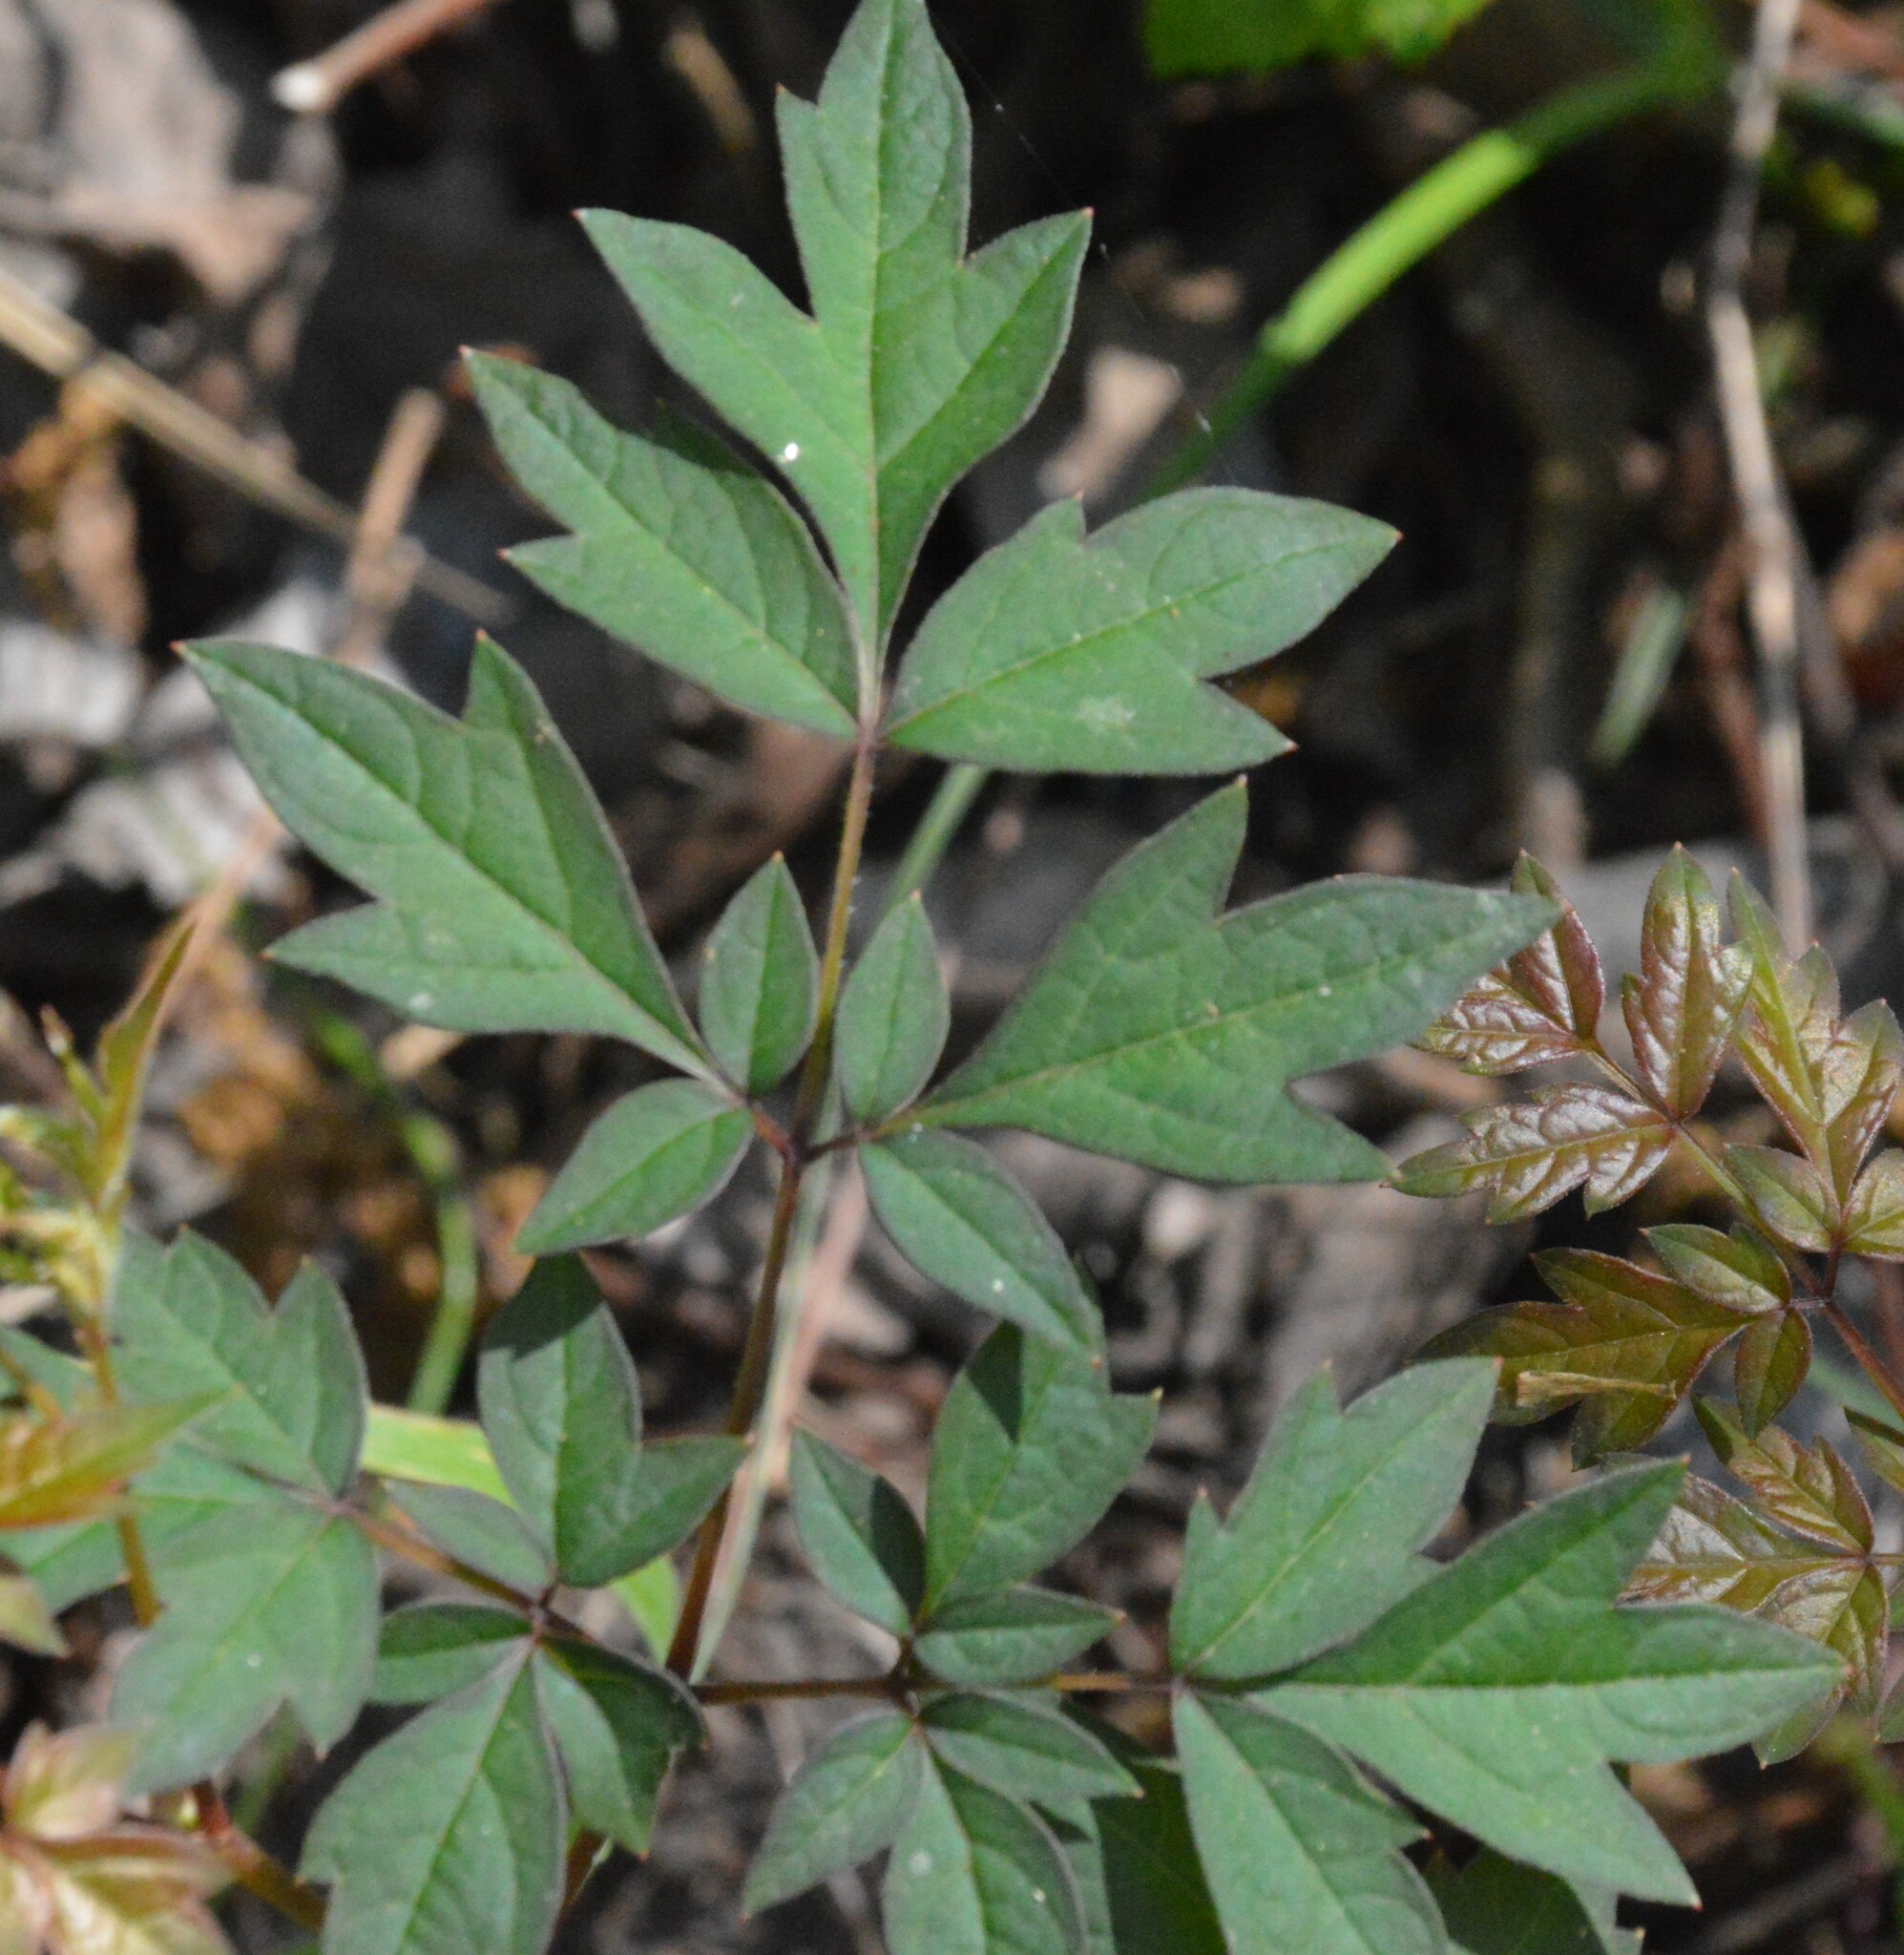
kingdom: Plantae
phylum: Tracheophyta
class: Magnoliopsida
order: Vitales
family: Vitaceae
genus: Nekemias
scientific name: Nekemias arborea
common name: Peppervine
